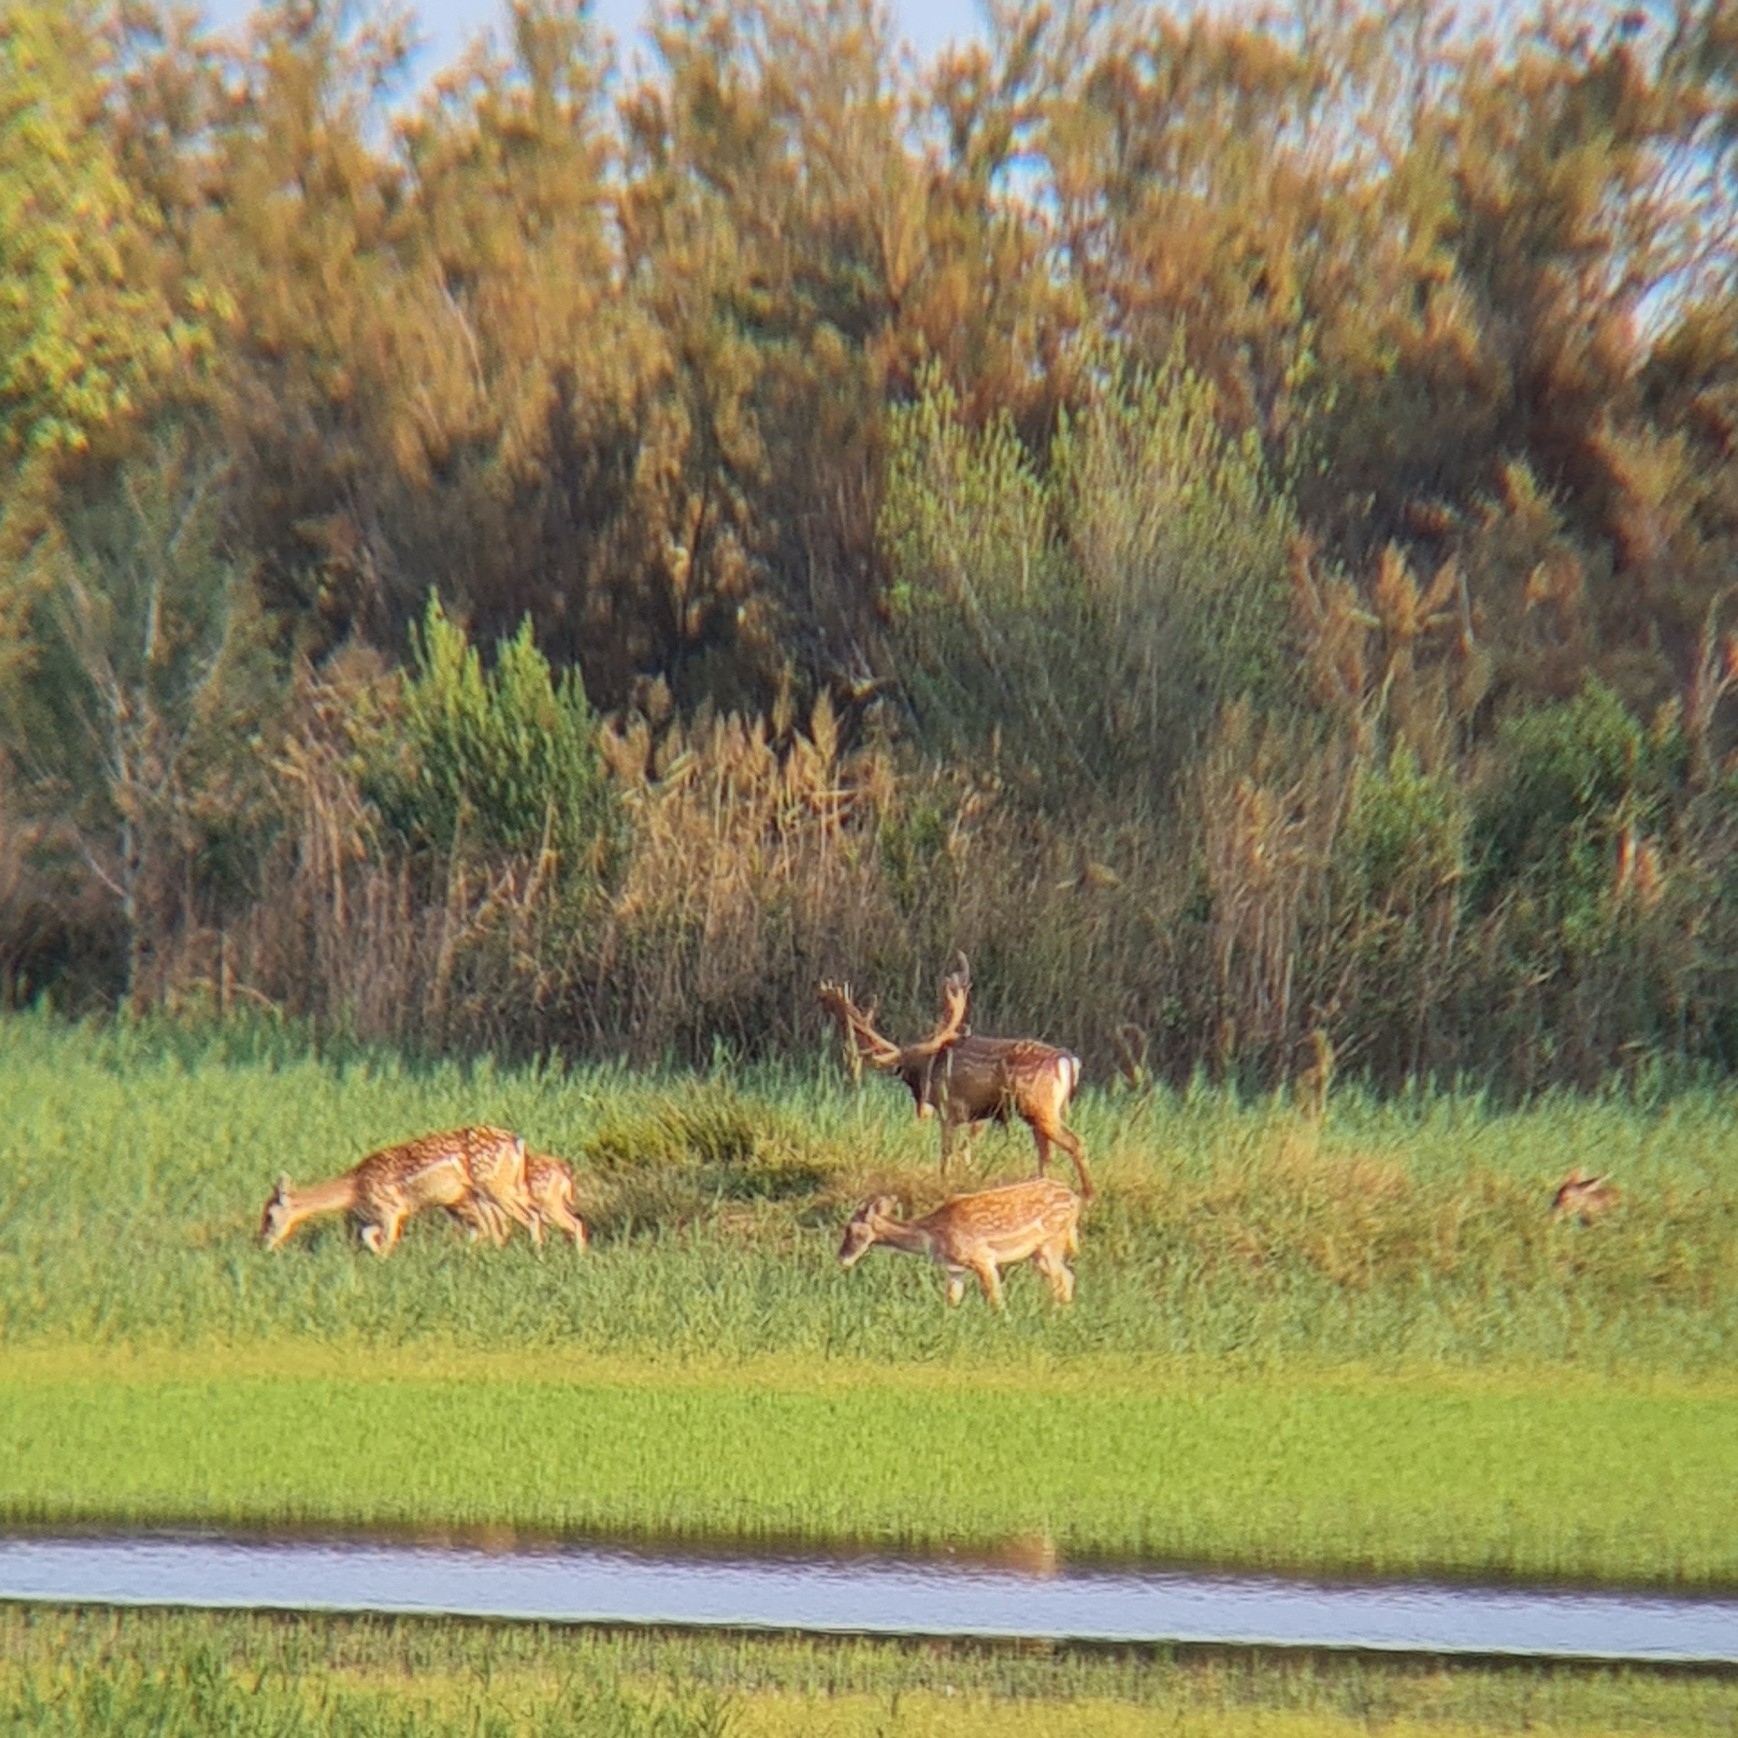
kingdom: Animalia
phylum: Chordata
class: Mammalia
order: Artiodactyla
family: Cervidae
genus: Dama
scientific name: Dama dama
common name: Fallow deer
